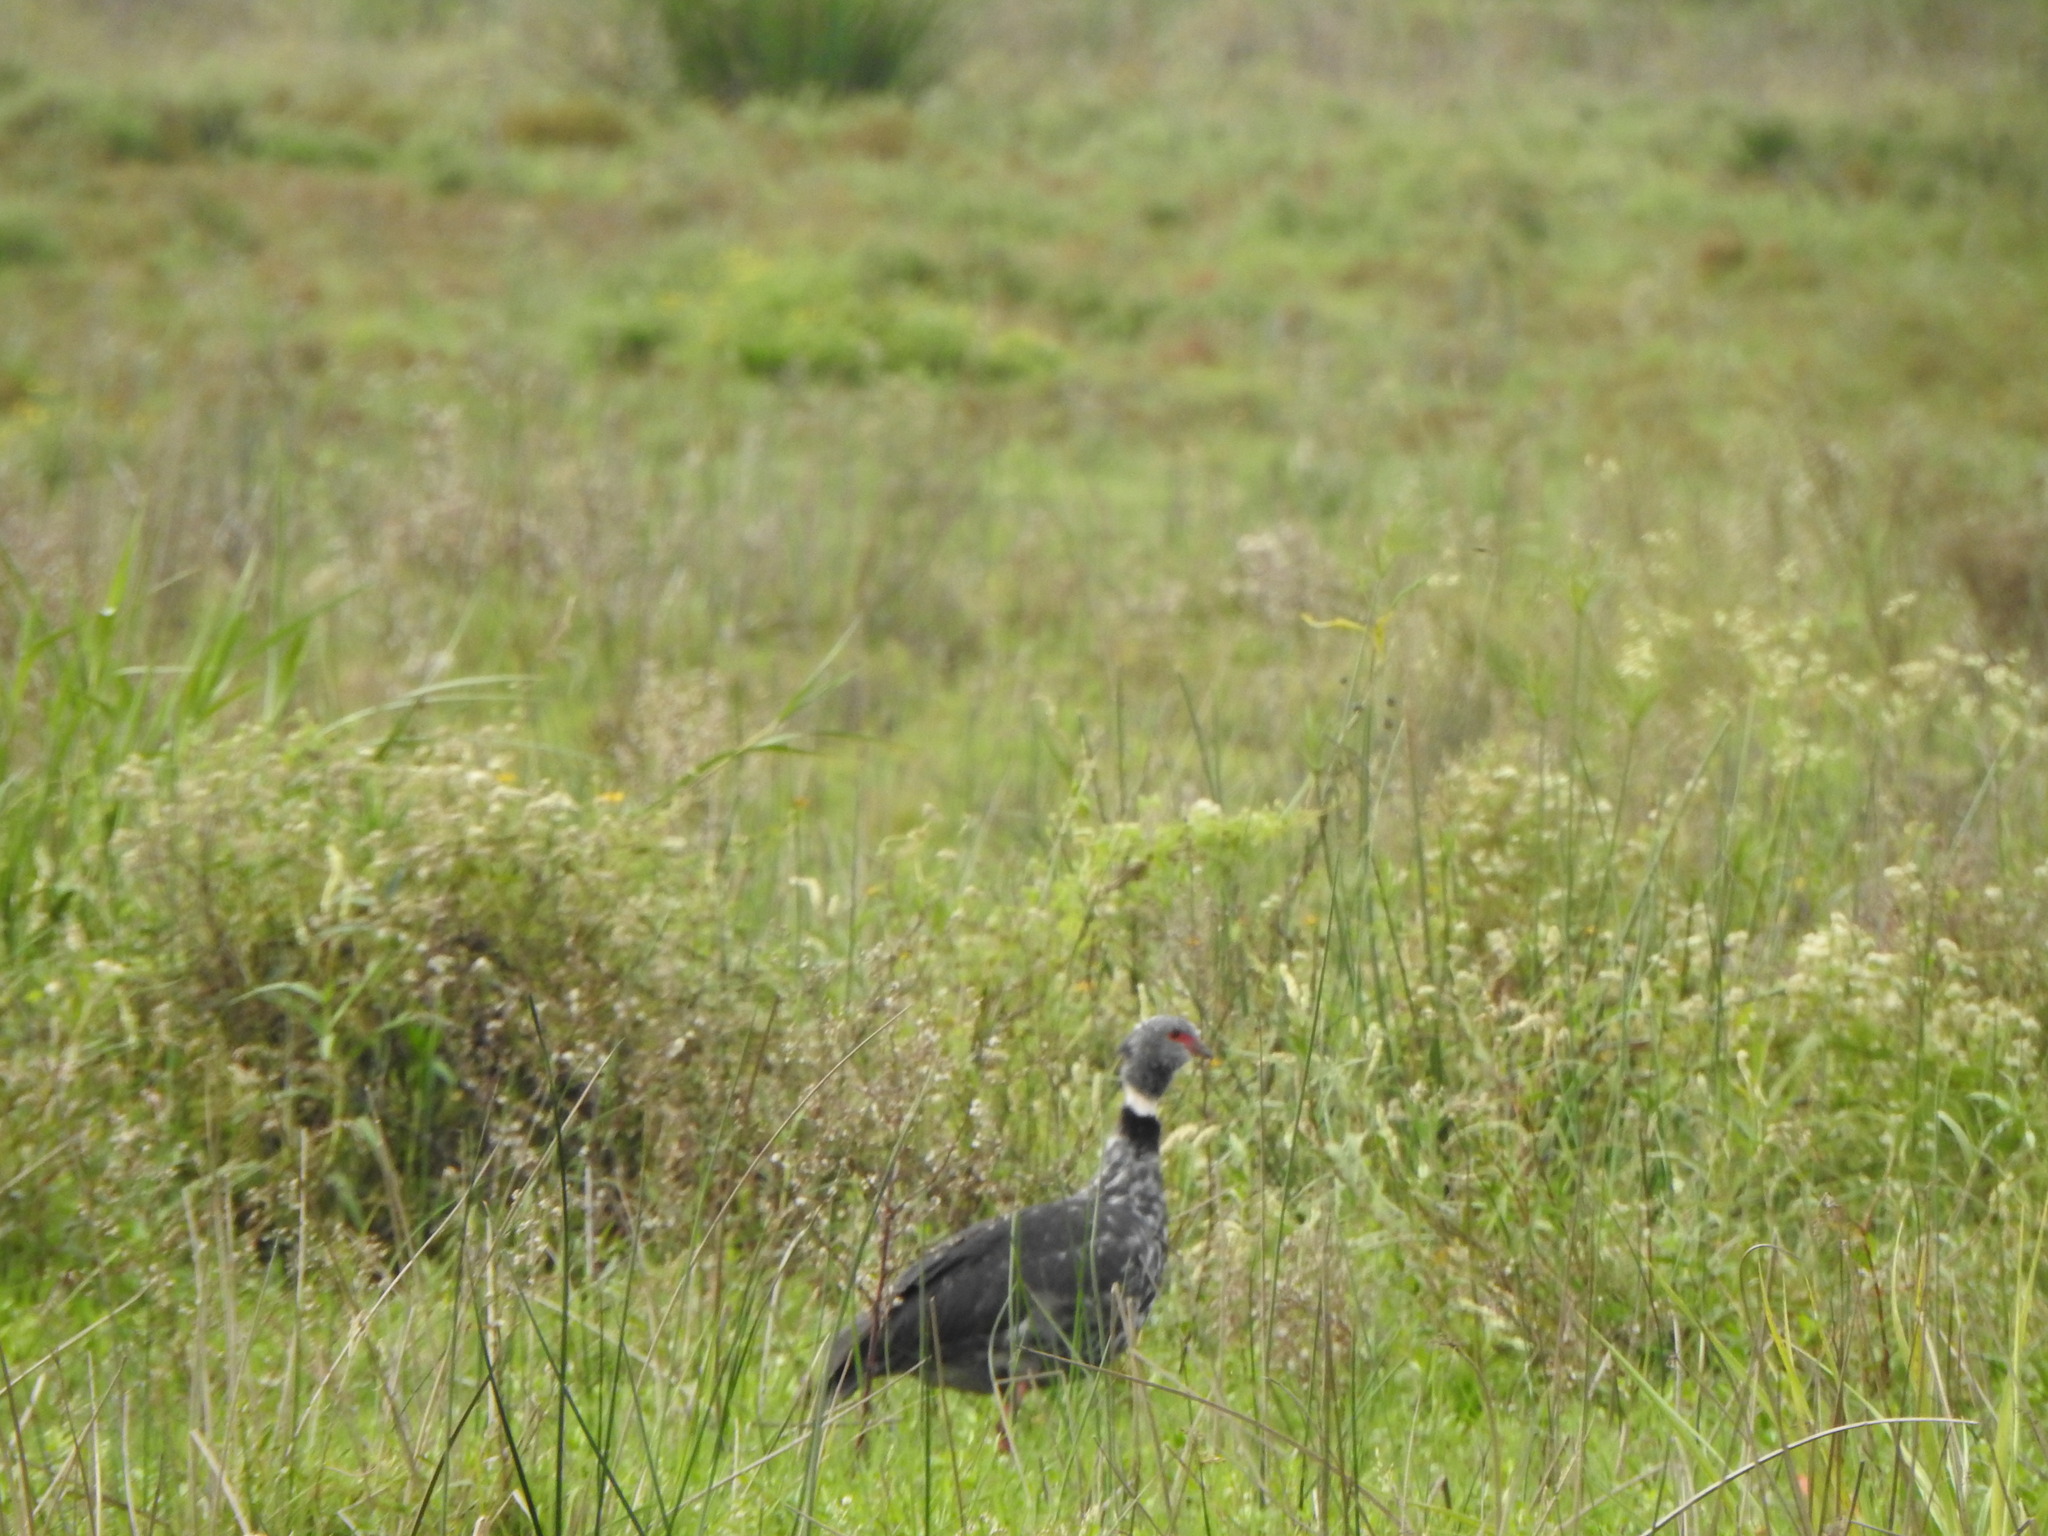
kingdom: Animalia
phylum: Chordata
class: Aves
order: Anseriformes
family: Anhimidae
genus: Chauna
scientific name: Chauna torquata
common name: Southern screamer
